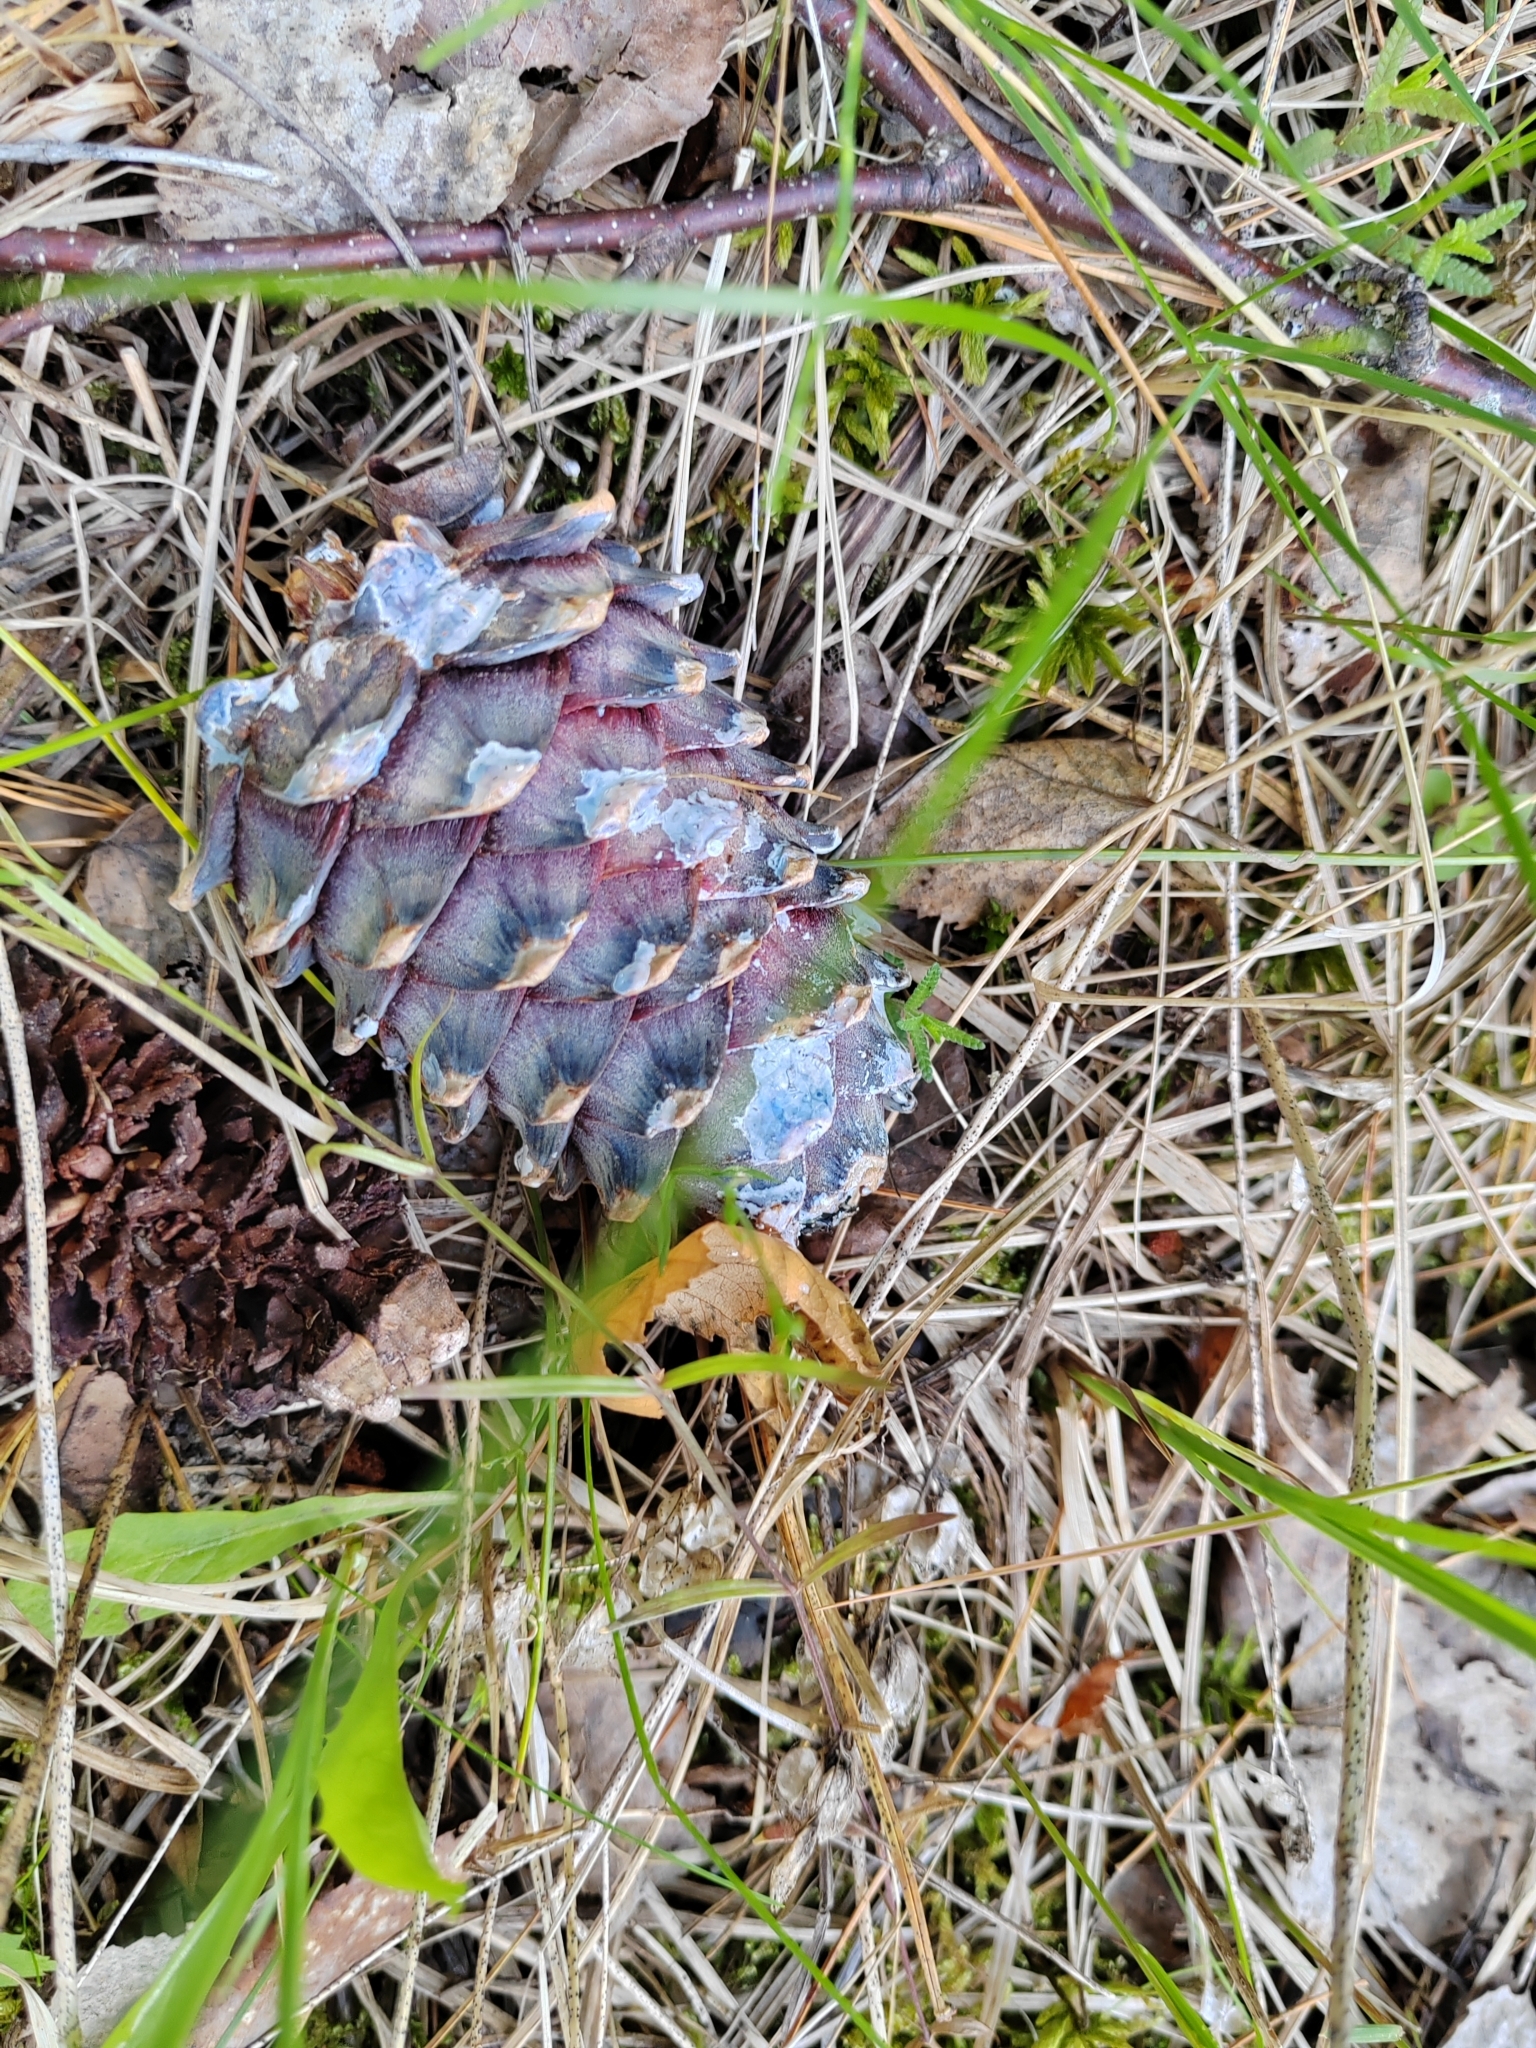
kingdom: Plantae
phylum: Tracheophyta
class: Pinopsida
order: Pinales
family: Pinaceae
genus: Pinus
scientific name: Pinus sibirica
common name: Siberian pine
